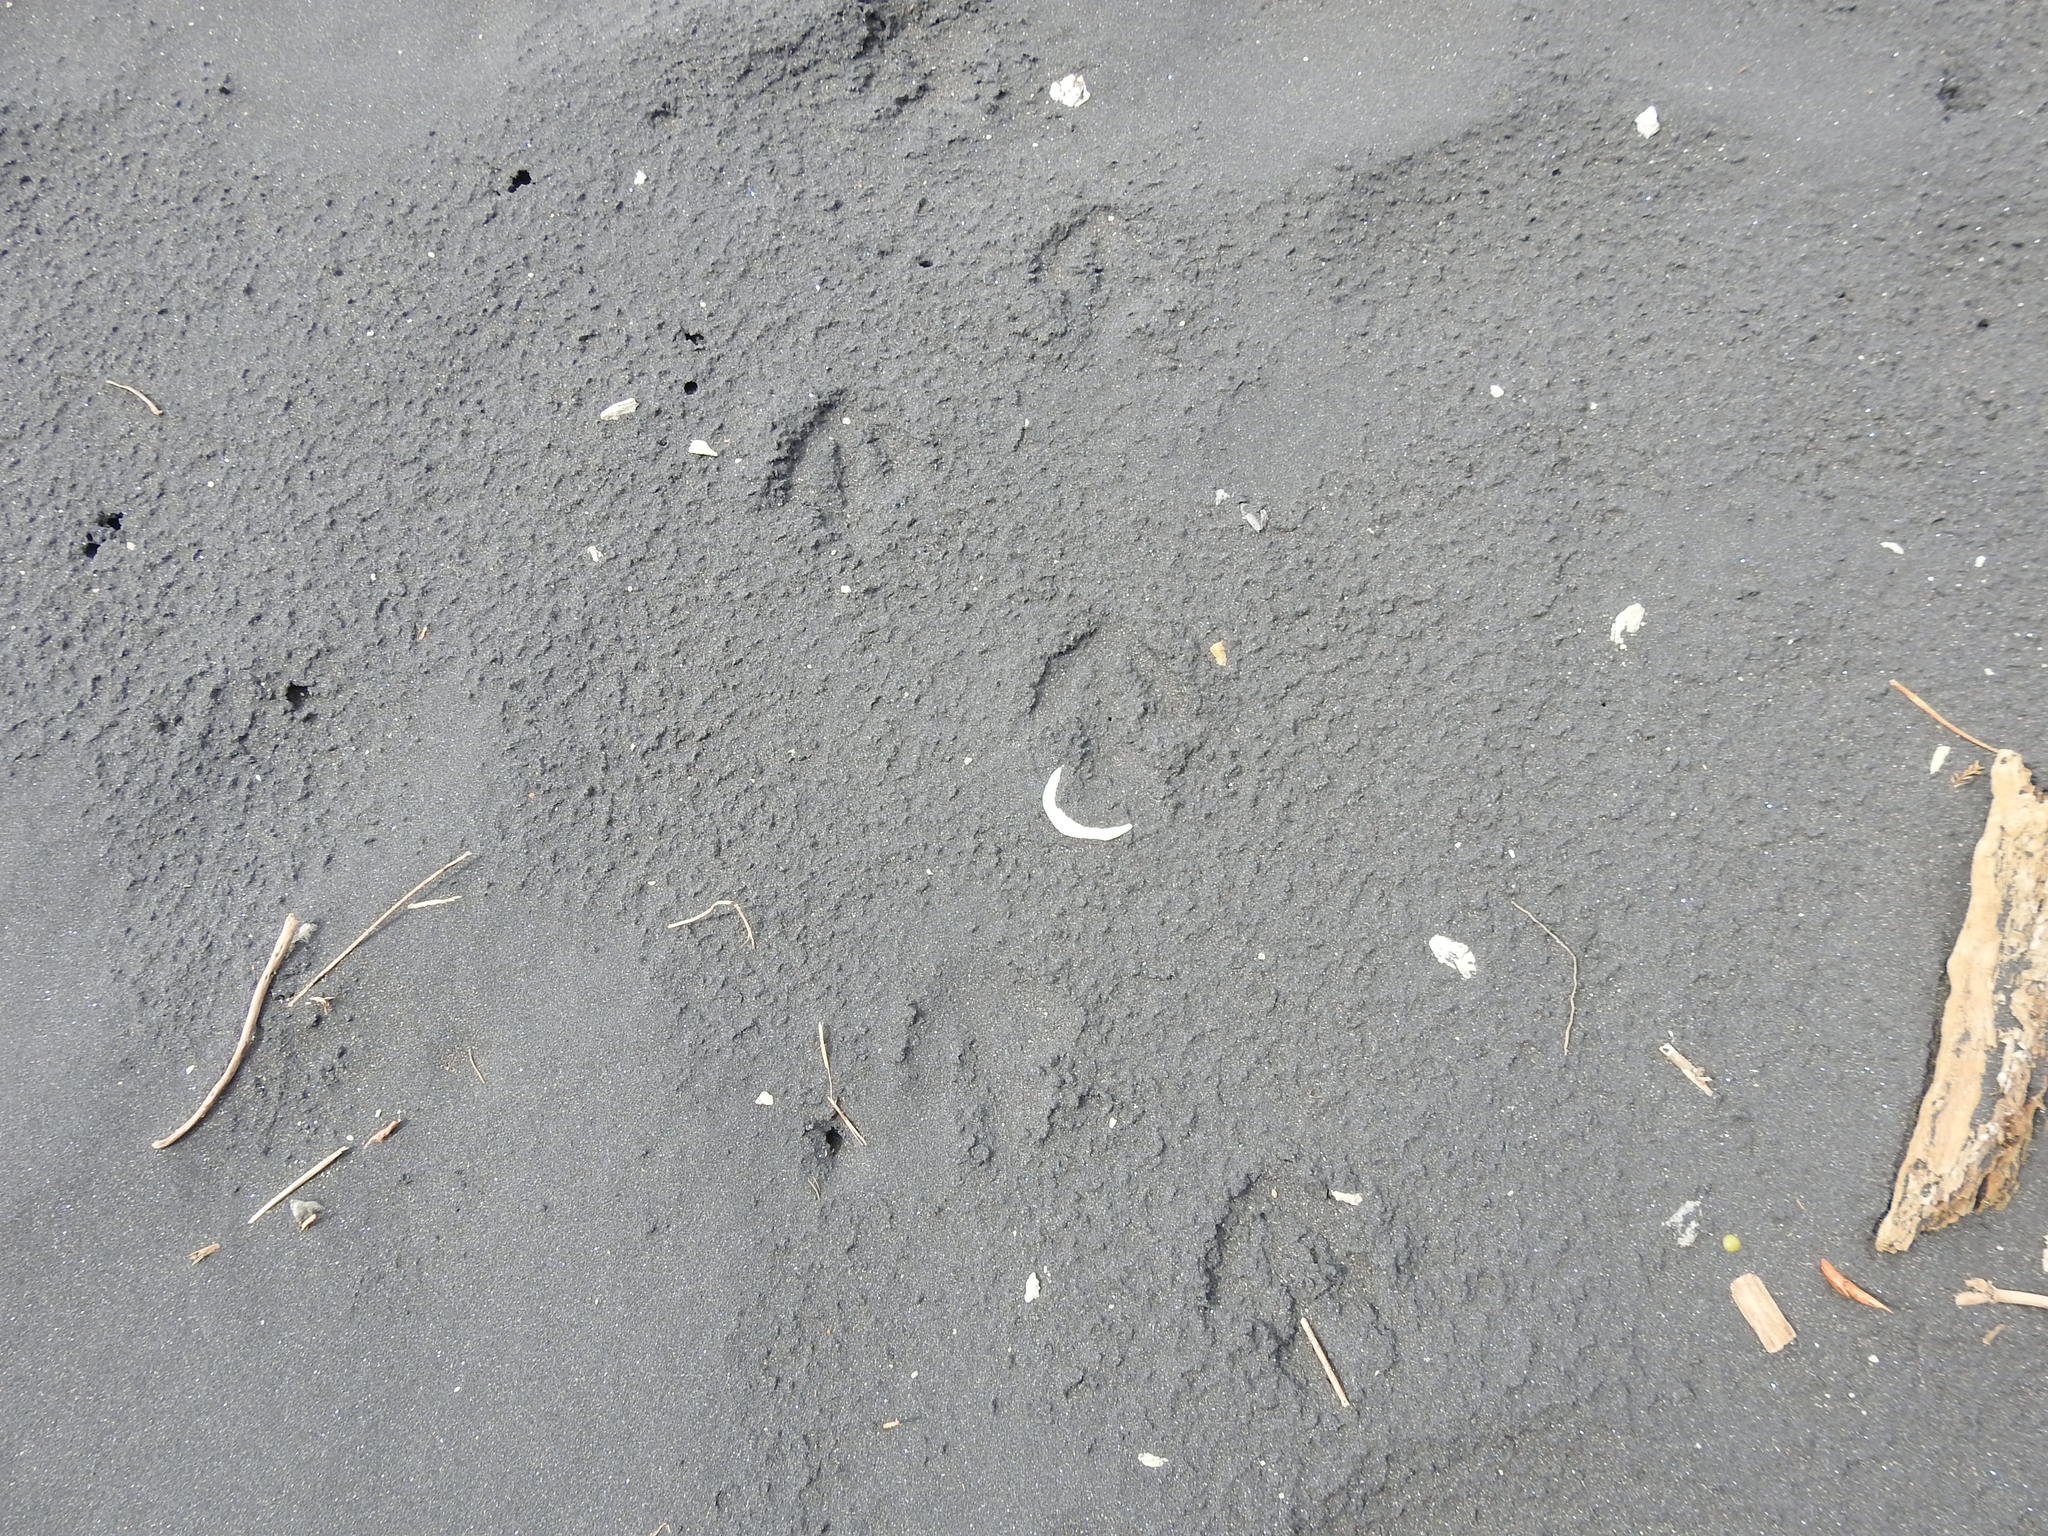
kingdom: Animalia
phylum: Chordata
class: Aves
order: Sphenisciformes
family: Spheniscidae
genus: Eudyptula
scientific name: Eudyptula minor
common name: Little penguin
